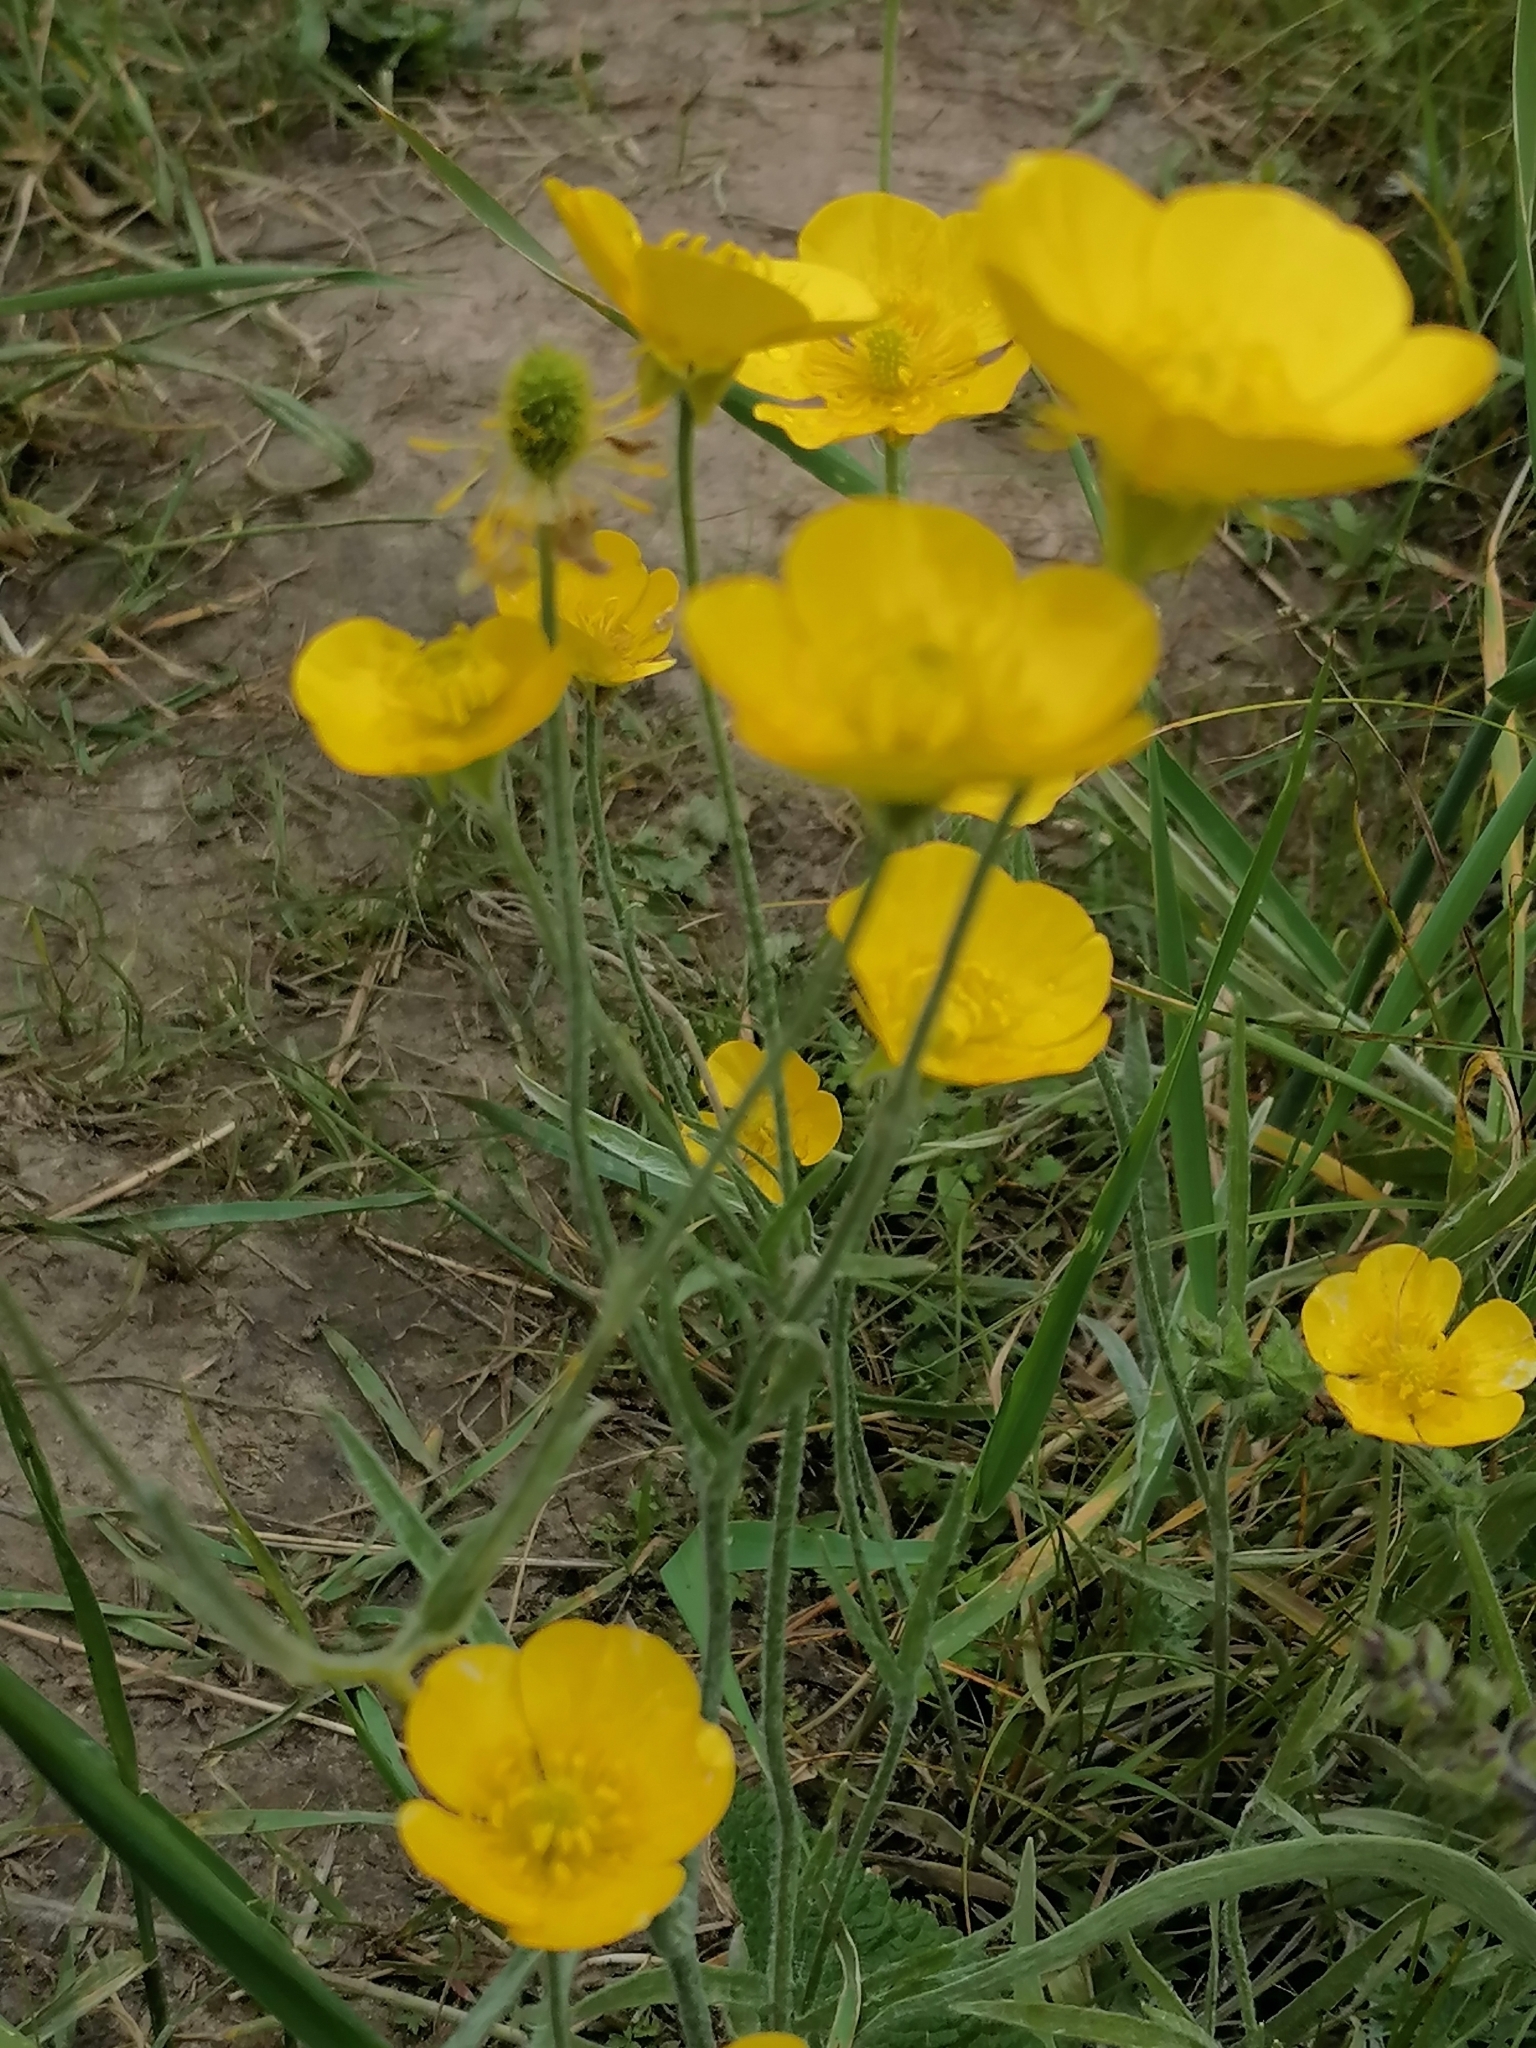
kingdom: Plantae
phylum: Tracheophyta
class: Magnoliopsida
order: Ranunculales
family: Ranunculaceae
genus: Ranunculus
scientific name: Ranunculus illyricus
